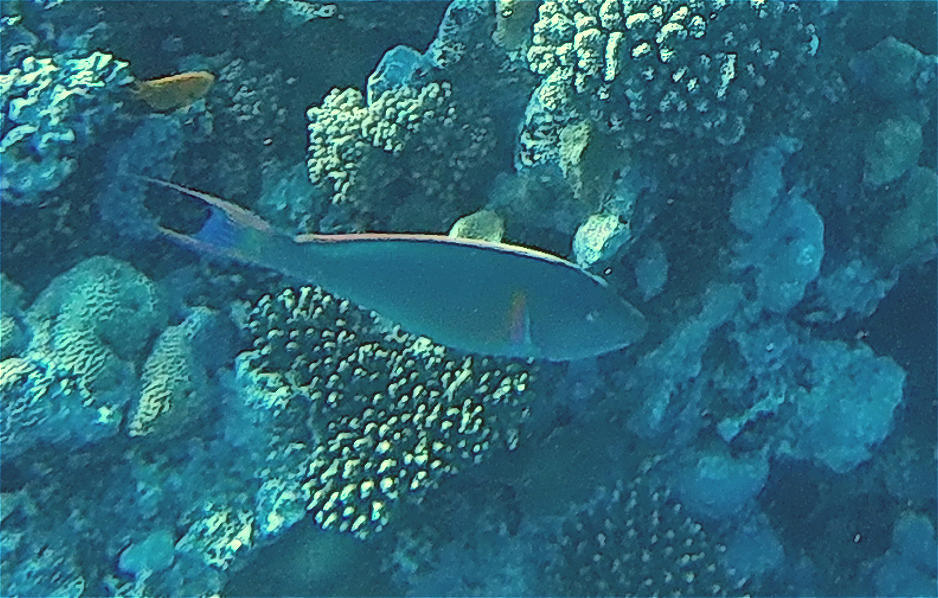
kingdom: Animalia
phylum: Chordata
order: Perciformes
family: Scaridae
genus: Hipposcarus
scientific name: Hipposcarus harid
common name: Candelamoa parrotfish
